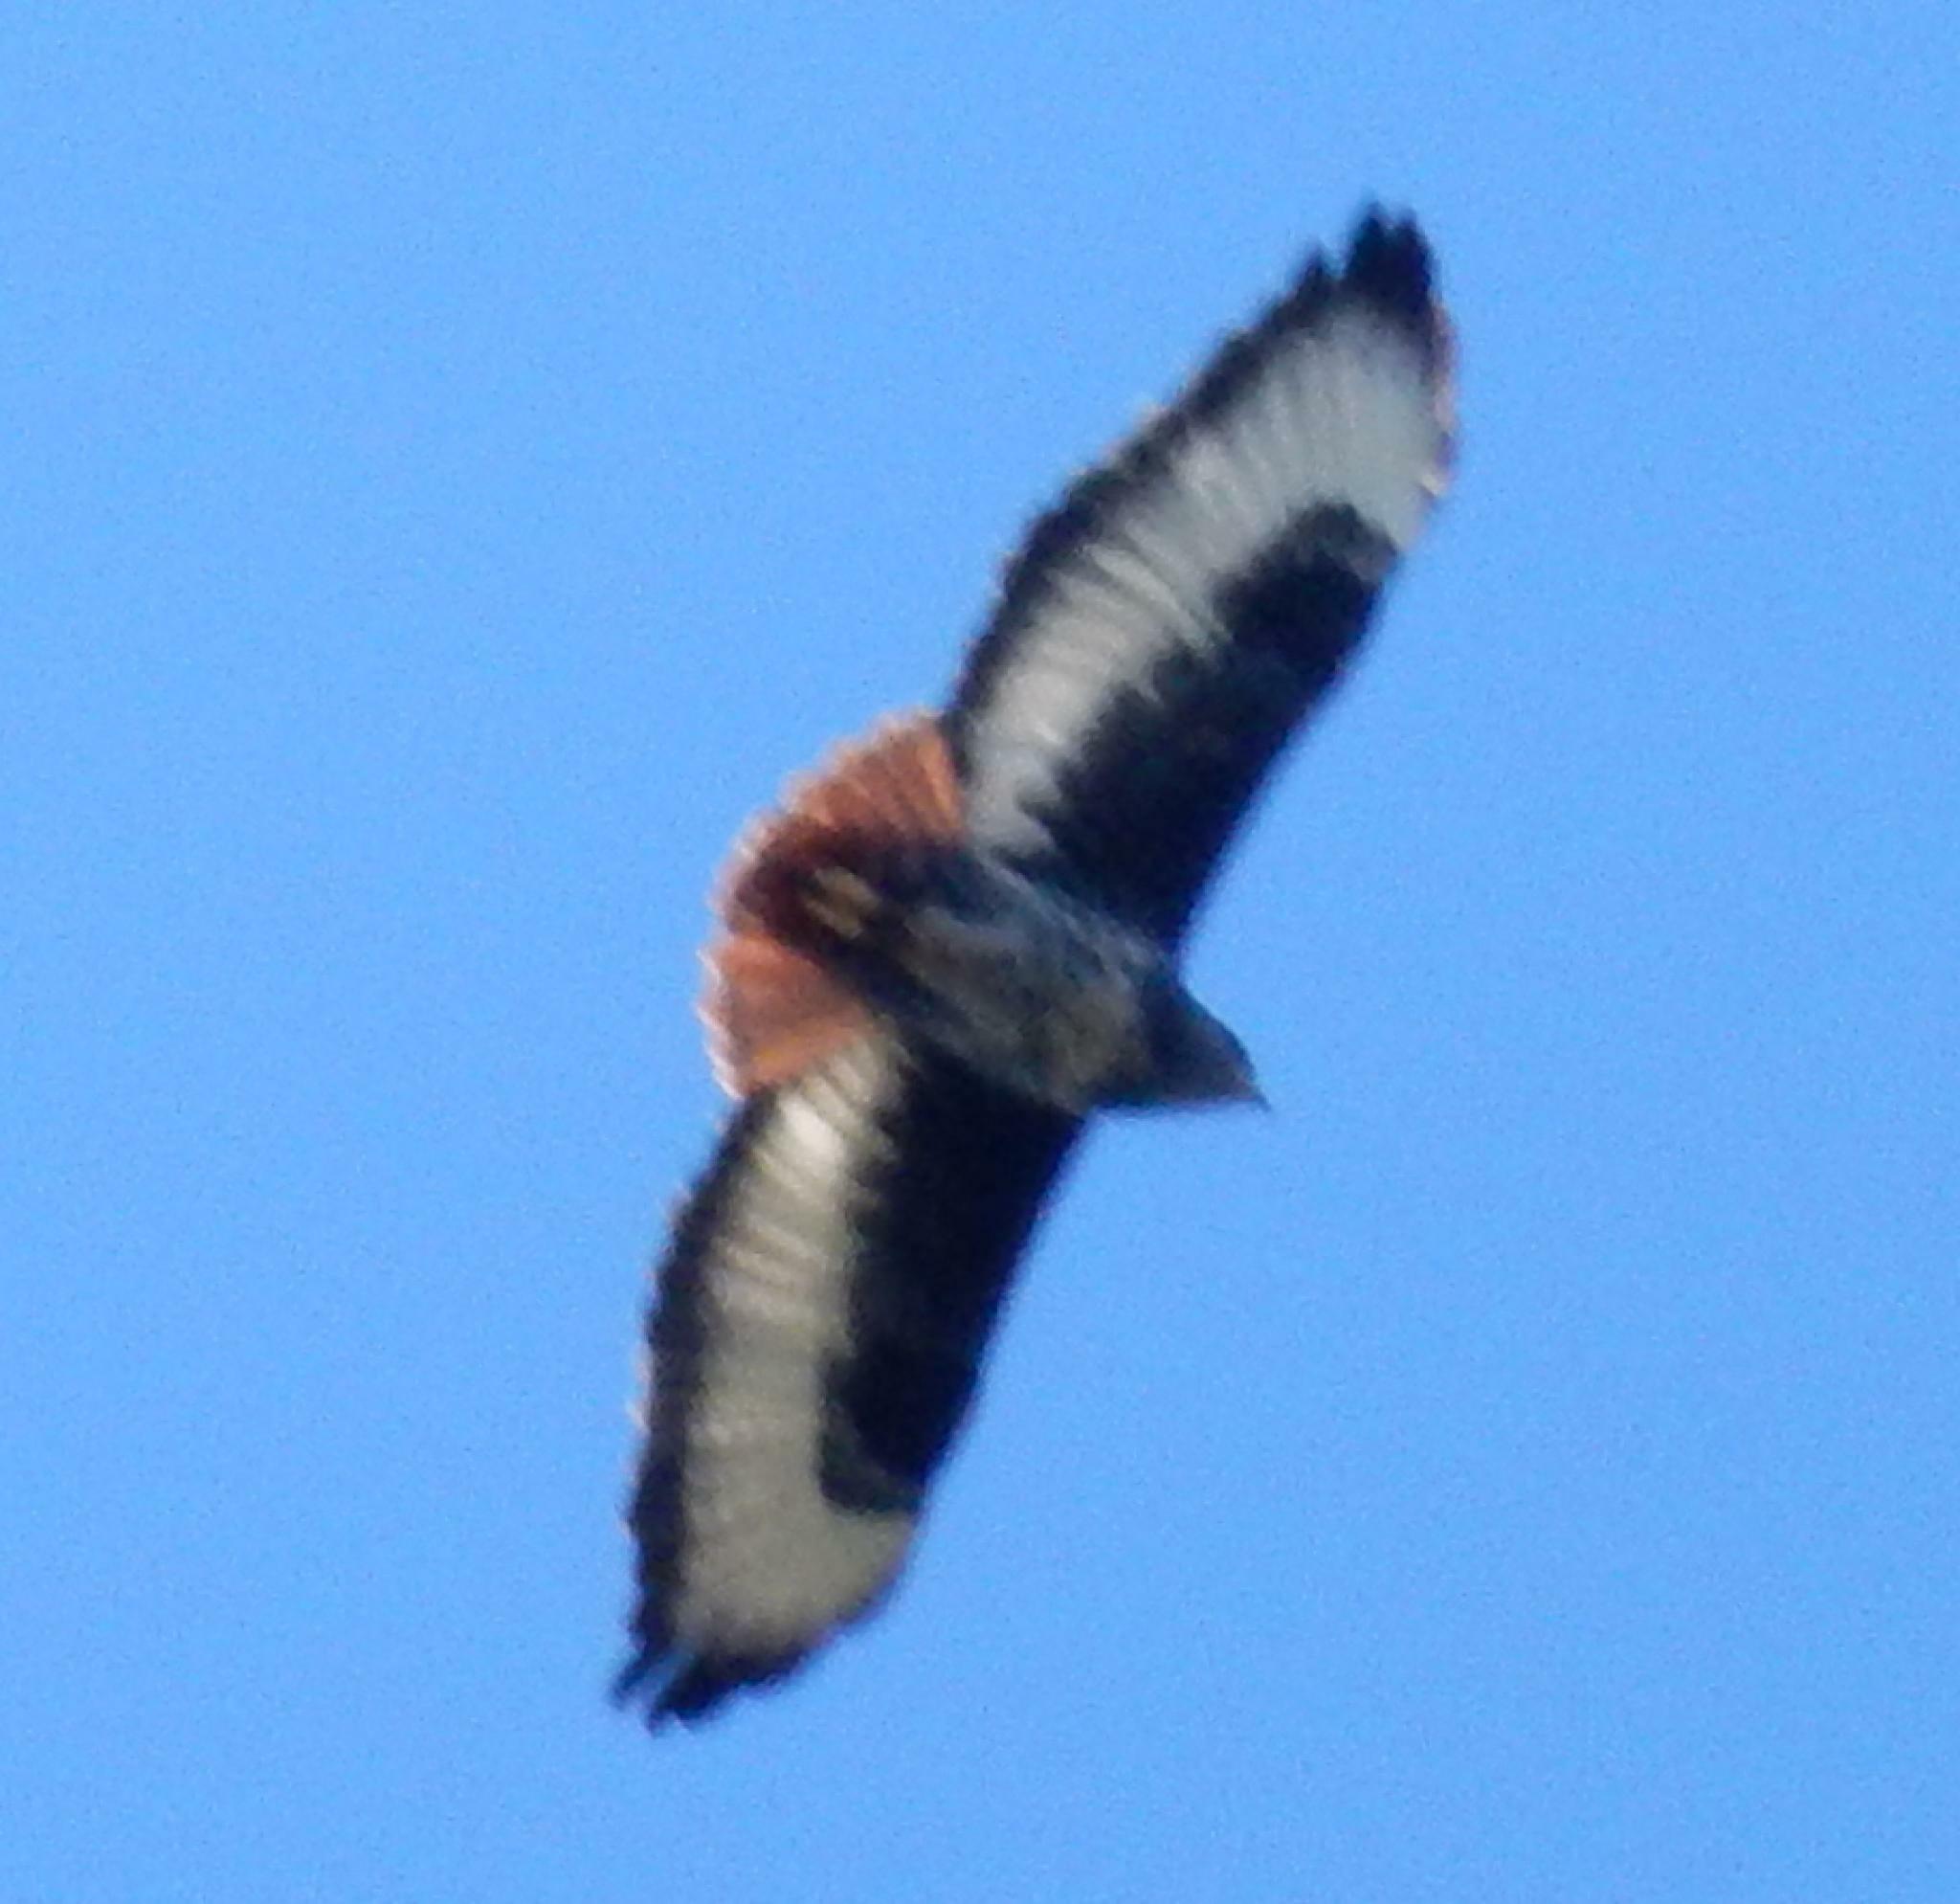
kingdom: Animalia
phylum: Chordata
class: Aves
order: Accipitriformes
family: Accipitridae
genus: Buteo
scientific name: Buteo rufofuscus
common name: Jackal buzzard
